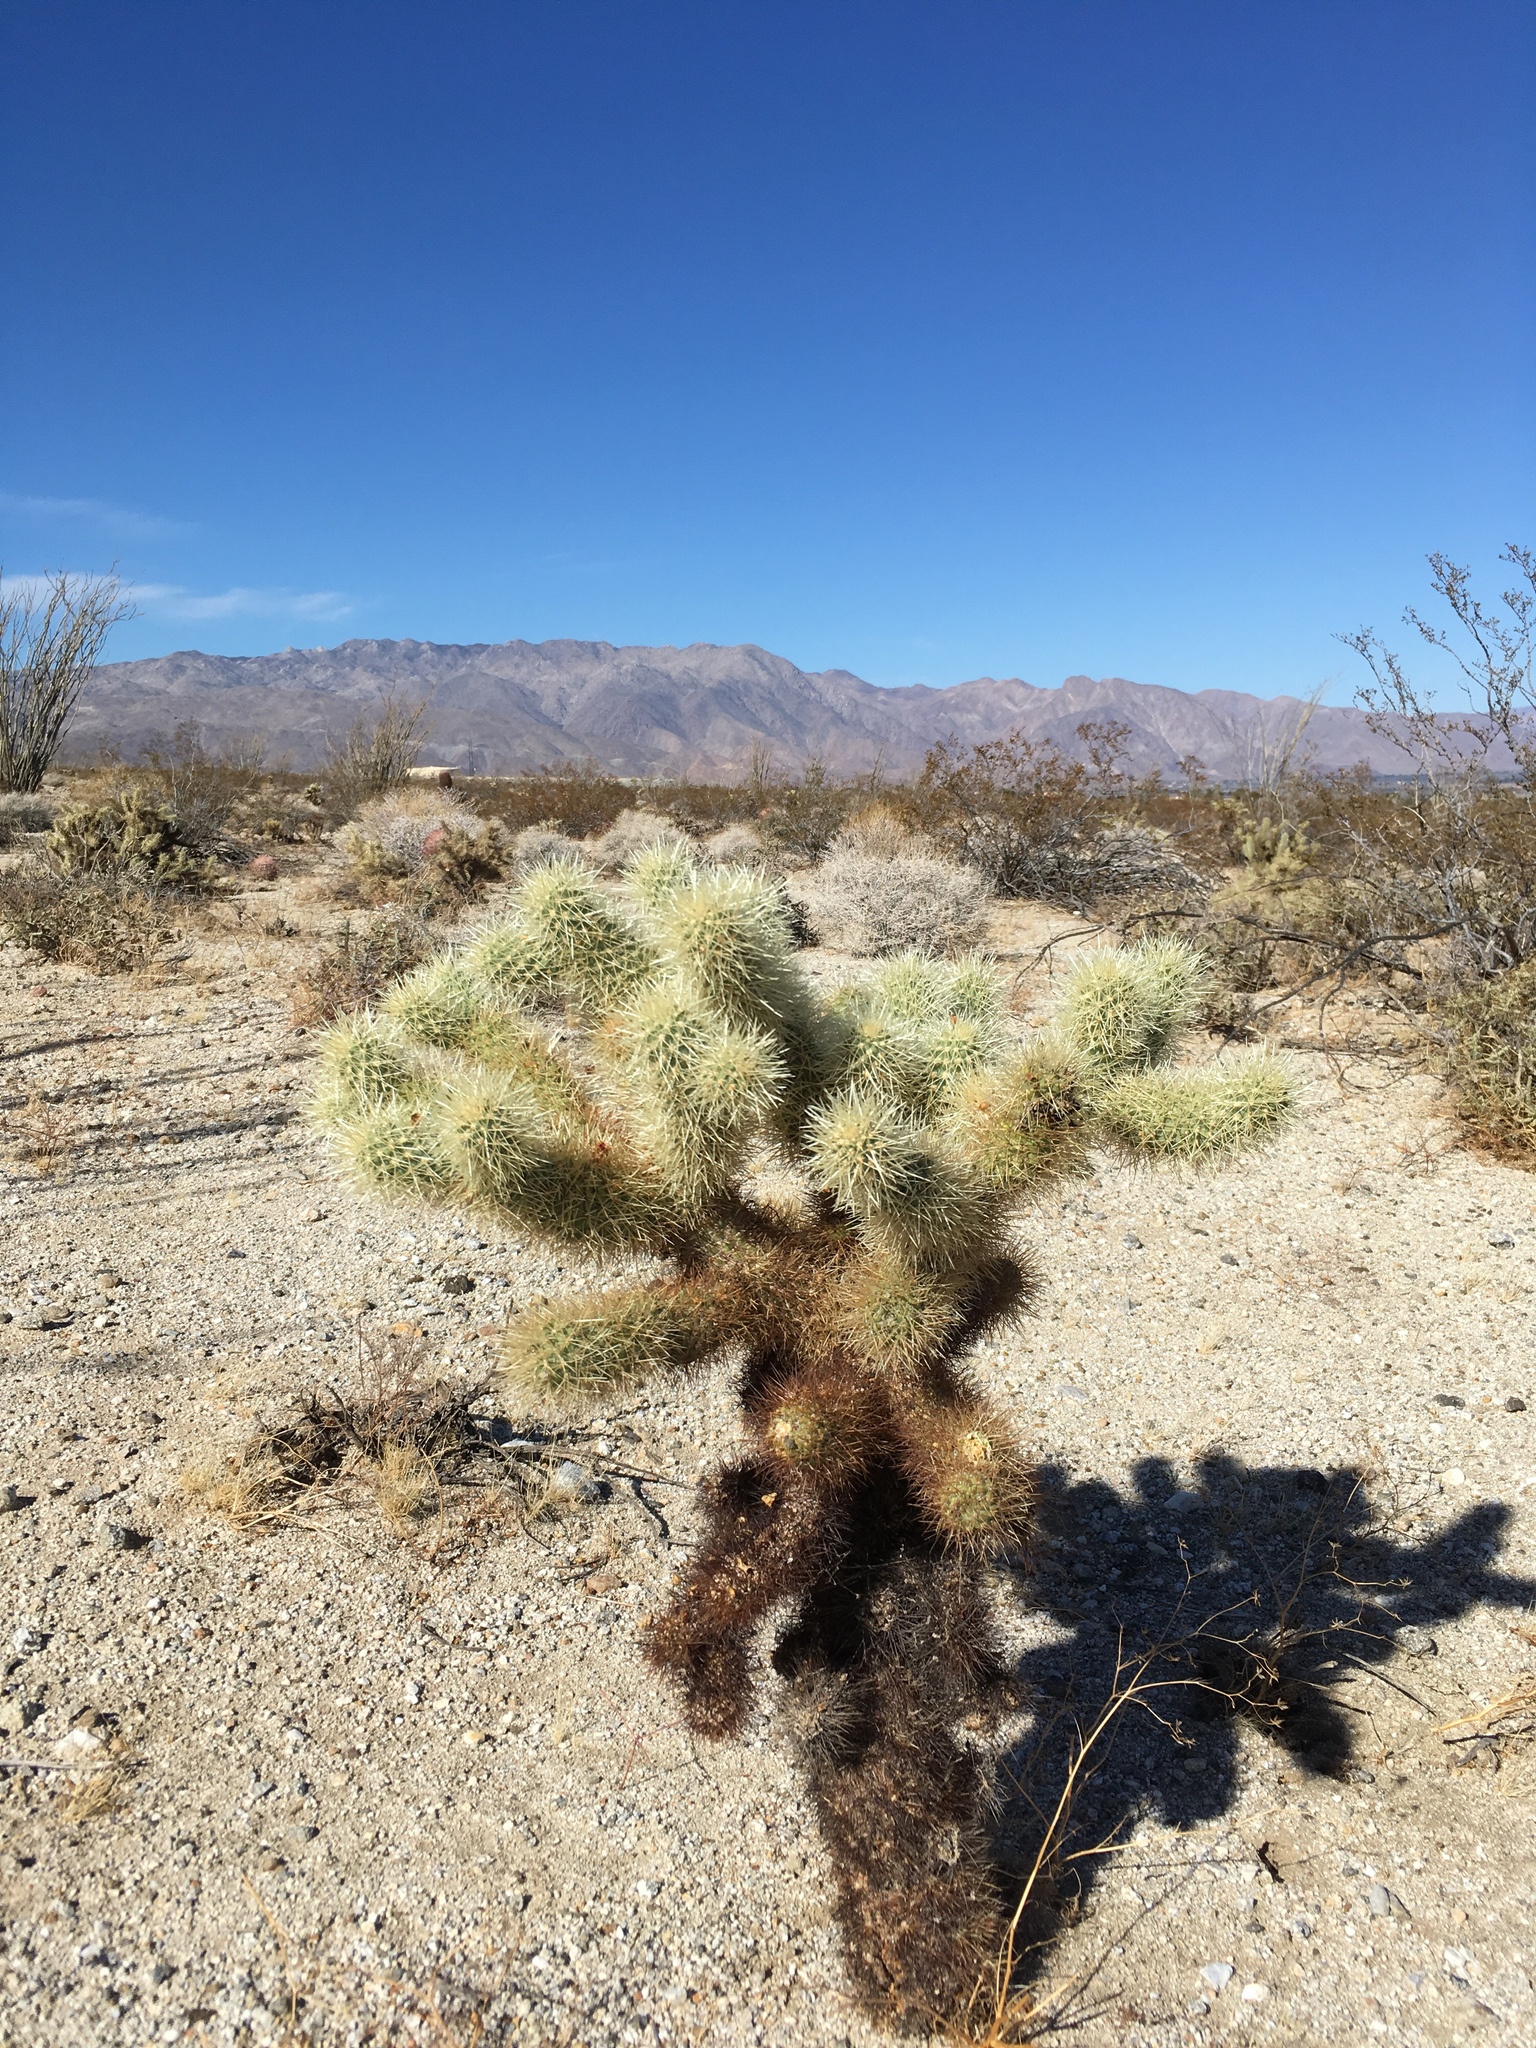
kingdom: Plantae
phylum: Tracheophyta
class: Magnoliopsida
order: Caryophyllales
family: Cactaceae
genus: Cylindropuntia
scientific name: Cylindropuntia fosbergii
